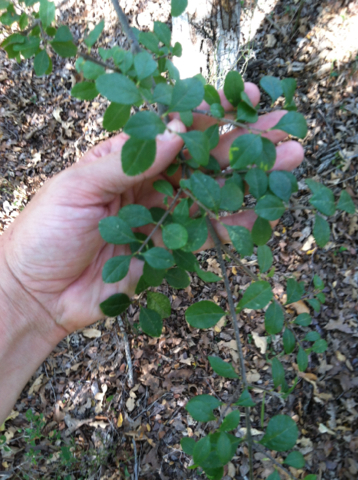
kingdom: Plantae
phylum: Tracheophyta
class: Magnoliopsida
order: Lamiales
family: Oleaceae
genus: Forestiera
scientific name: Forestiera pubescens
